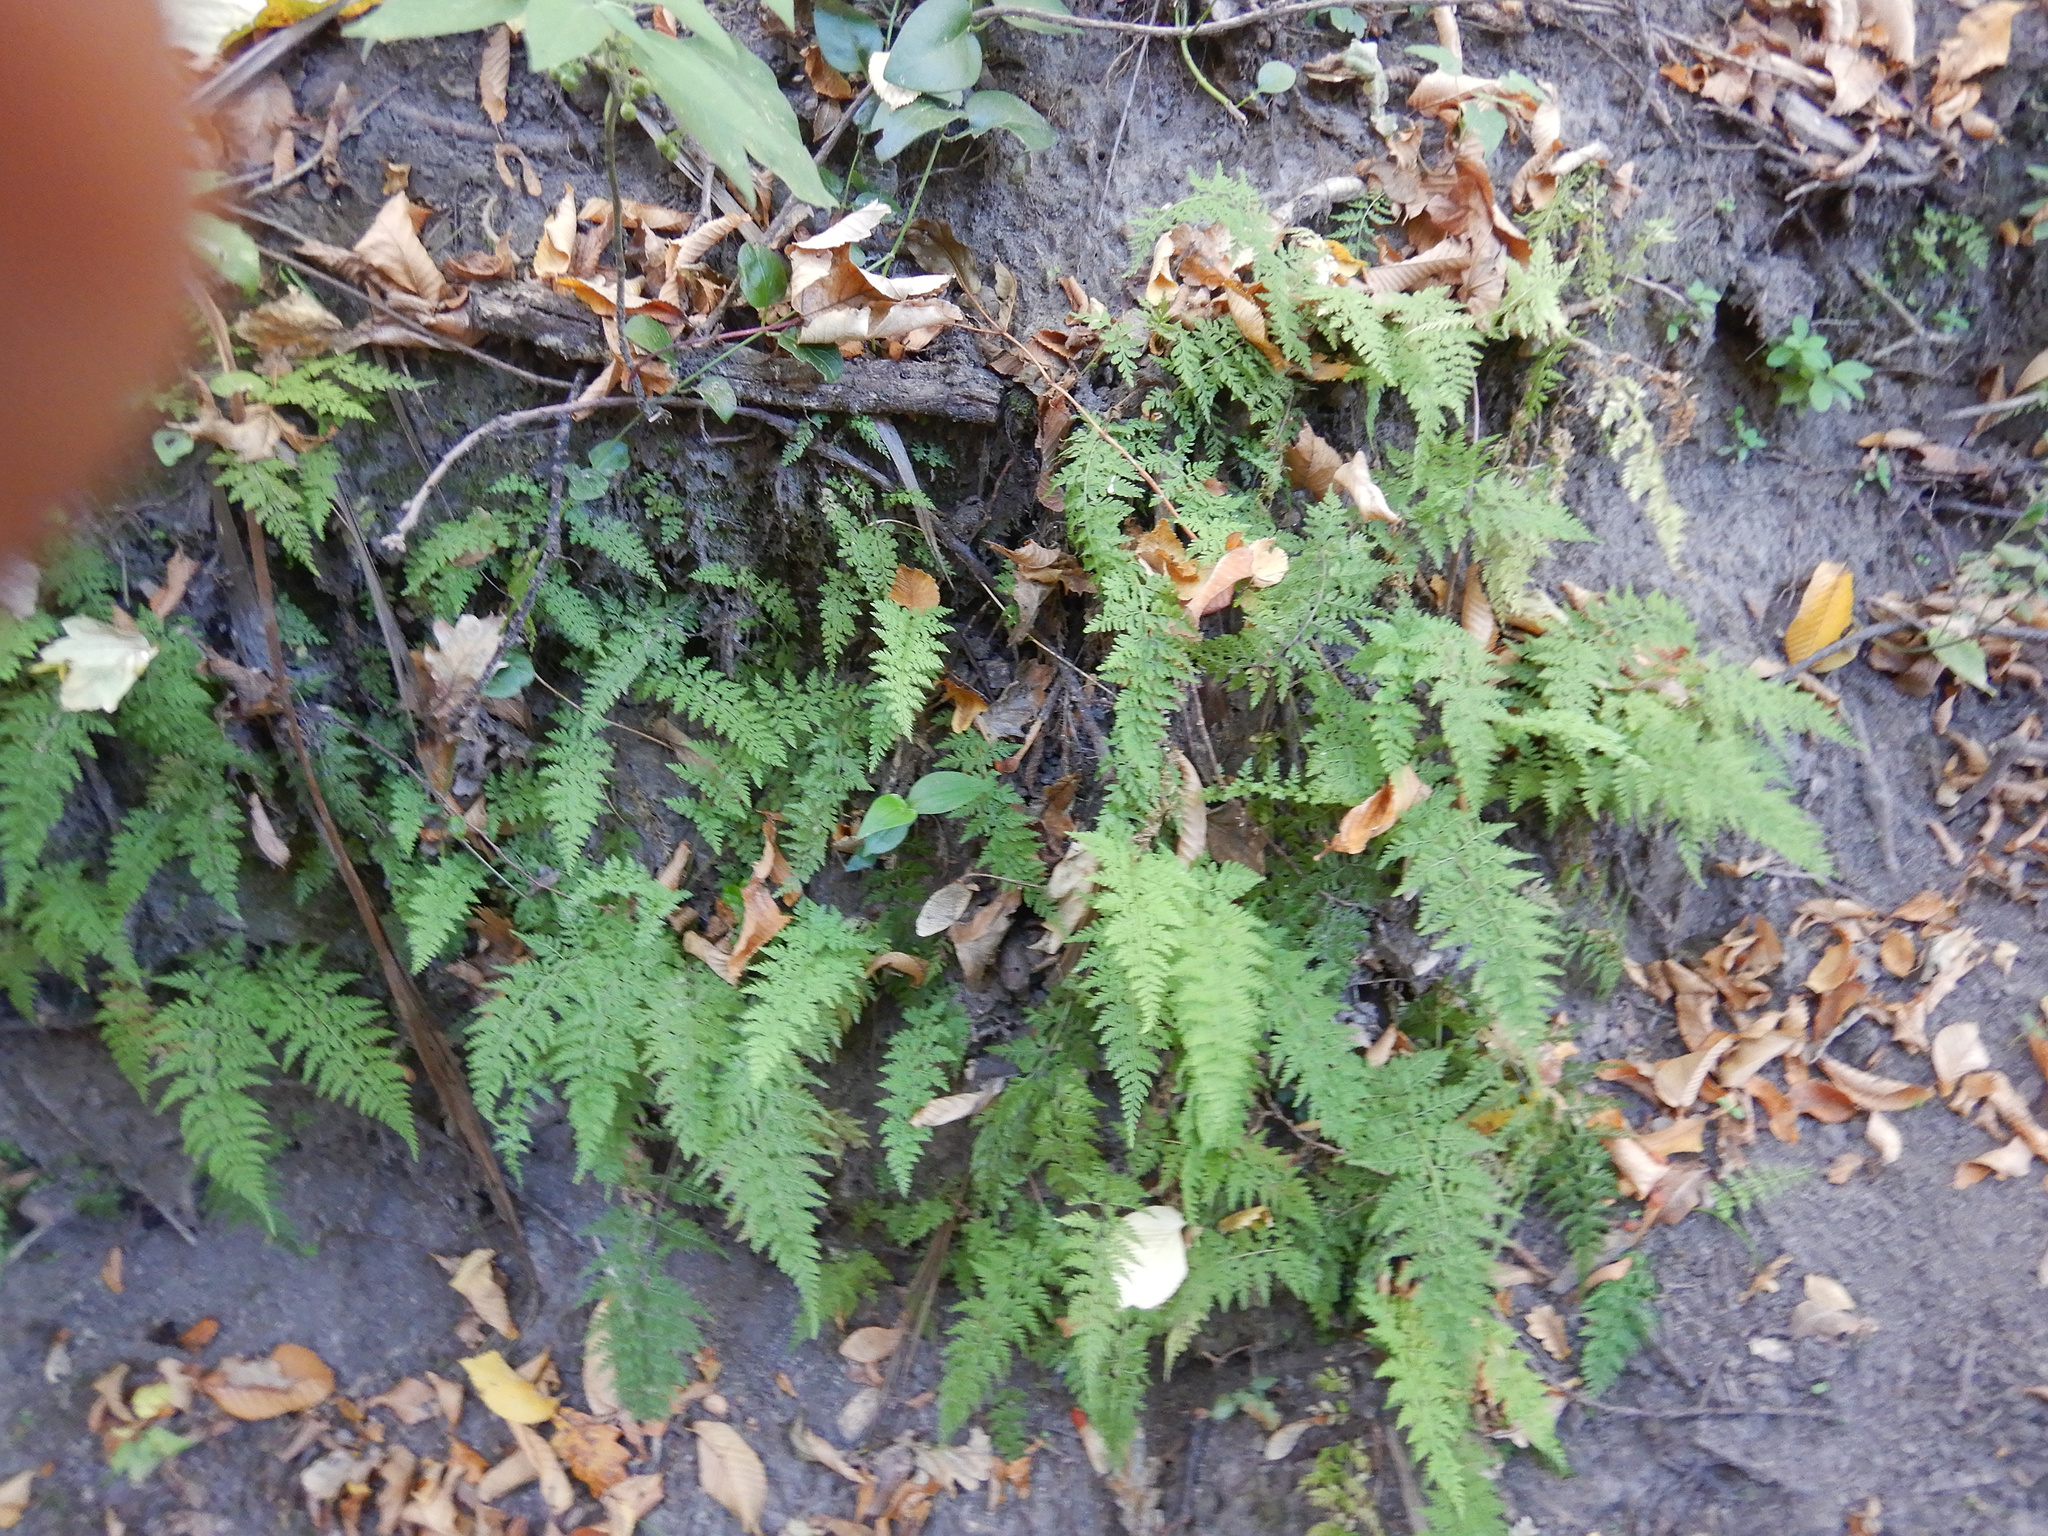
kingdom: Plantae
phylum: Tracheophyta
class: Polypodiopsida
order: Polypodiales
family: Cystopteridaceae
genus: Cystopteris
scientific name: Cystopteris fragilis
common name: Brittle bladder fern
